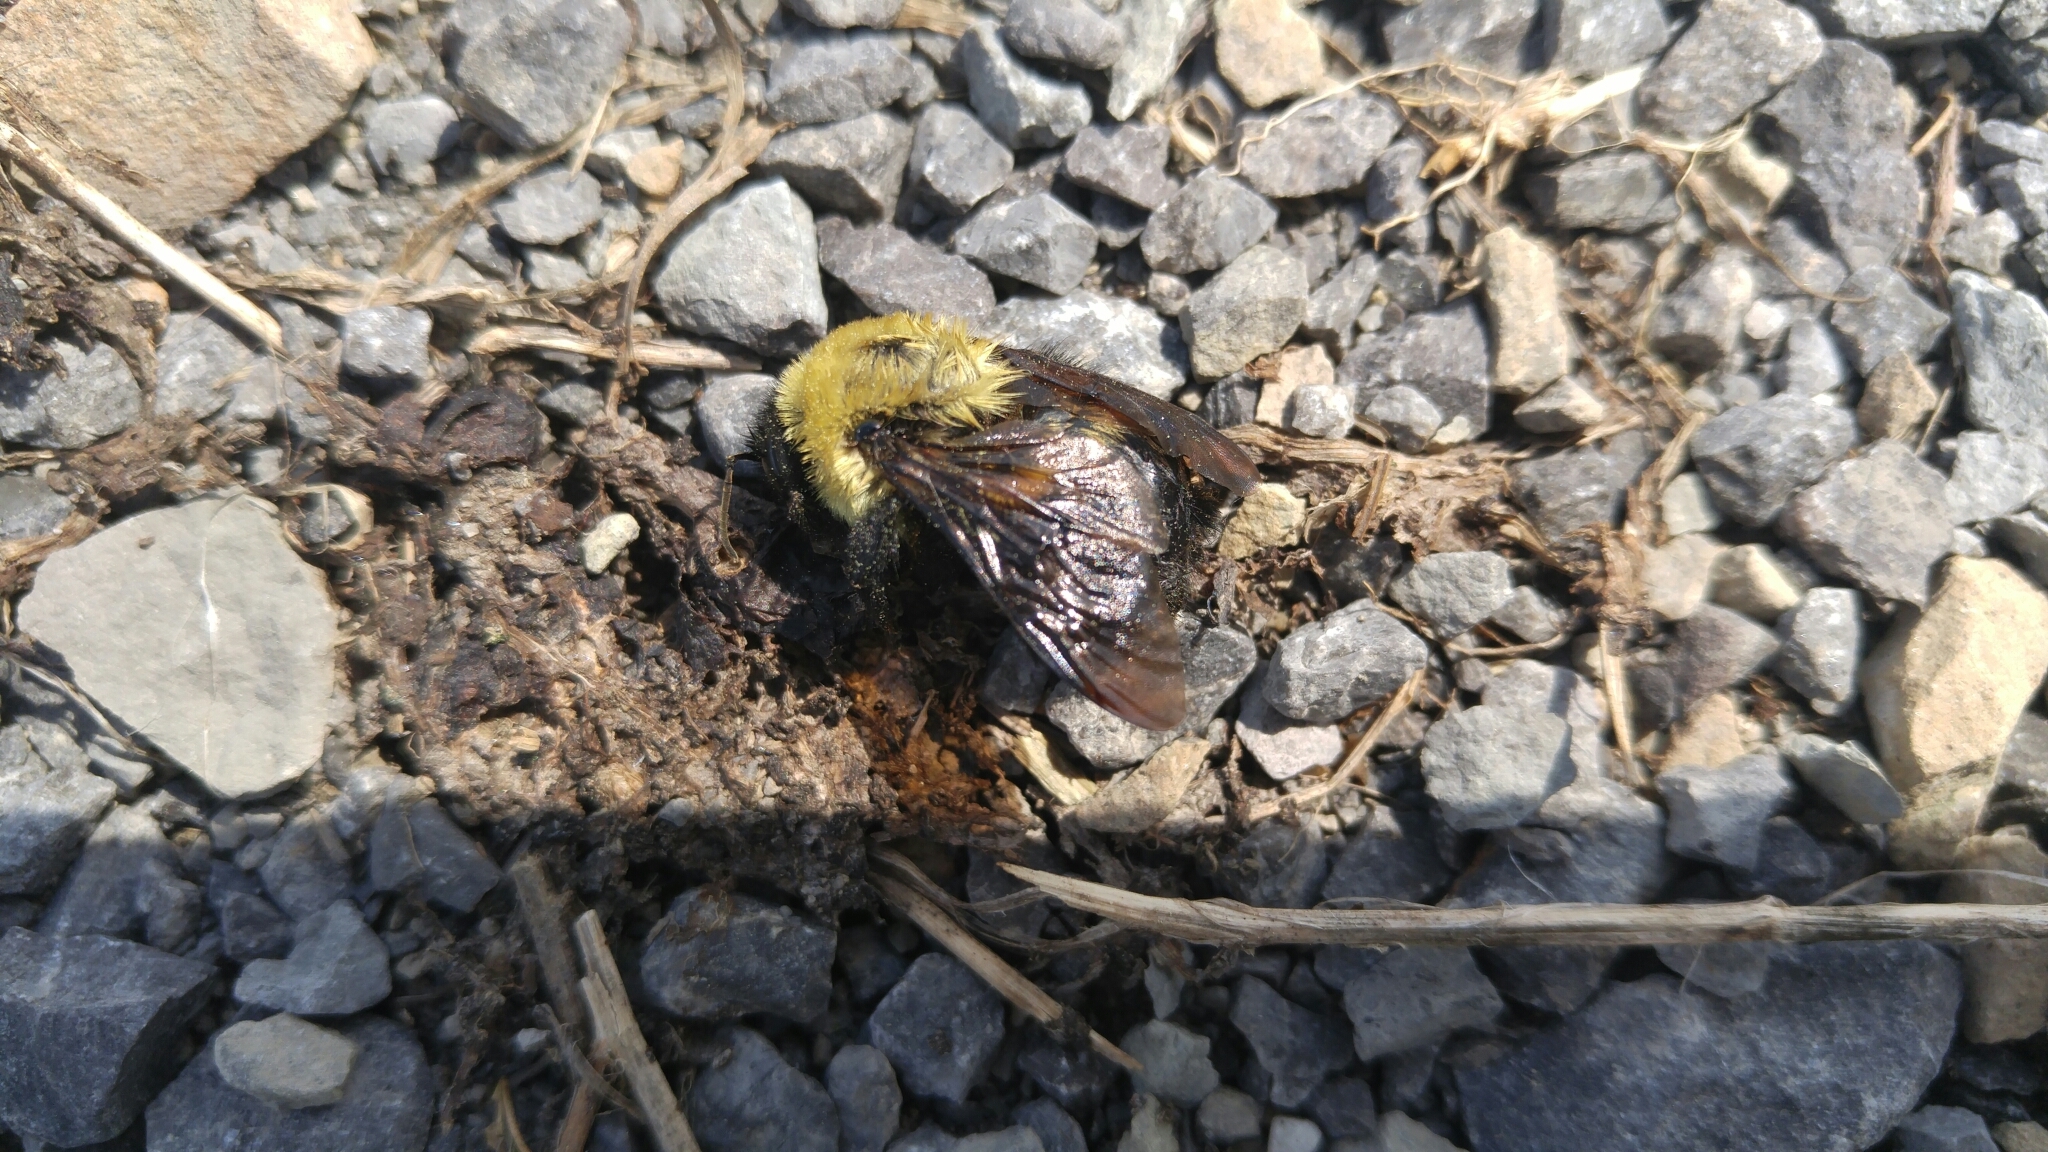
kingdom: Animalia
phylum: Arthropoda
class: Insecta
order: Hymenoptera
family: Apidae
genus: Bombus
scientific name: Bombus griseocollis
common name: Brown-belted bumble bee
